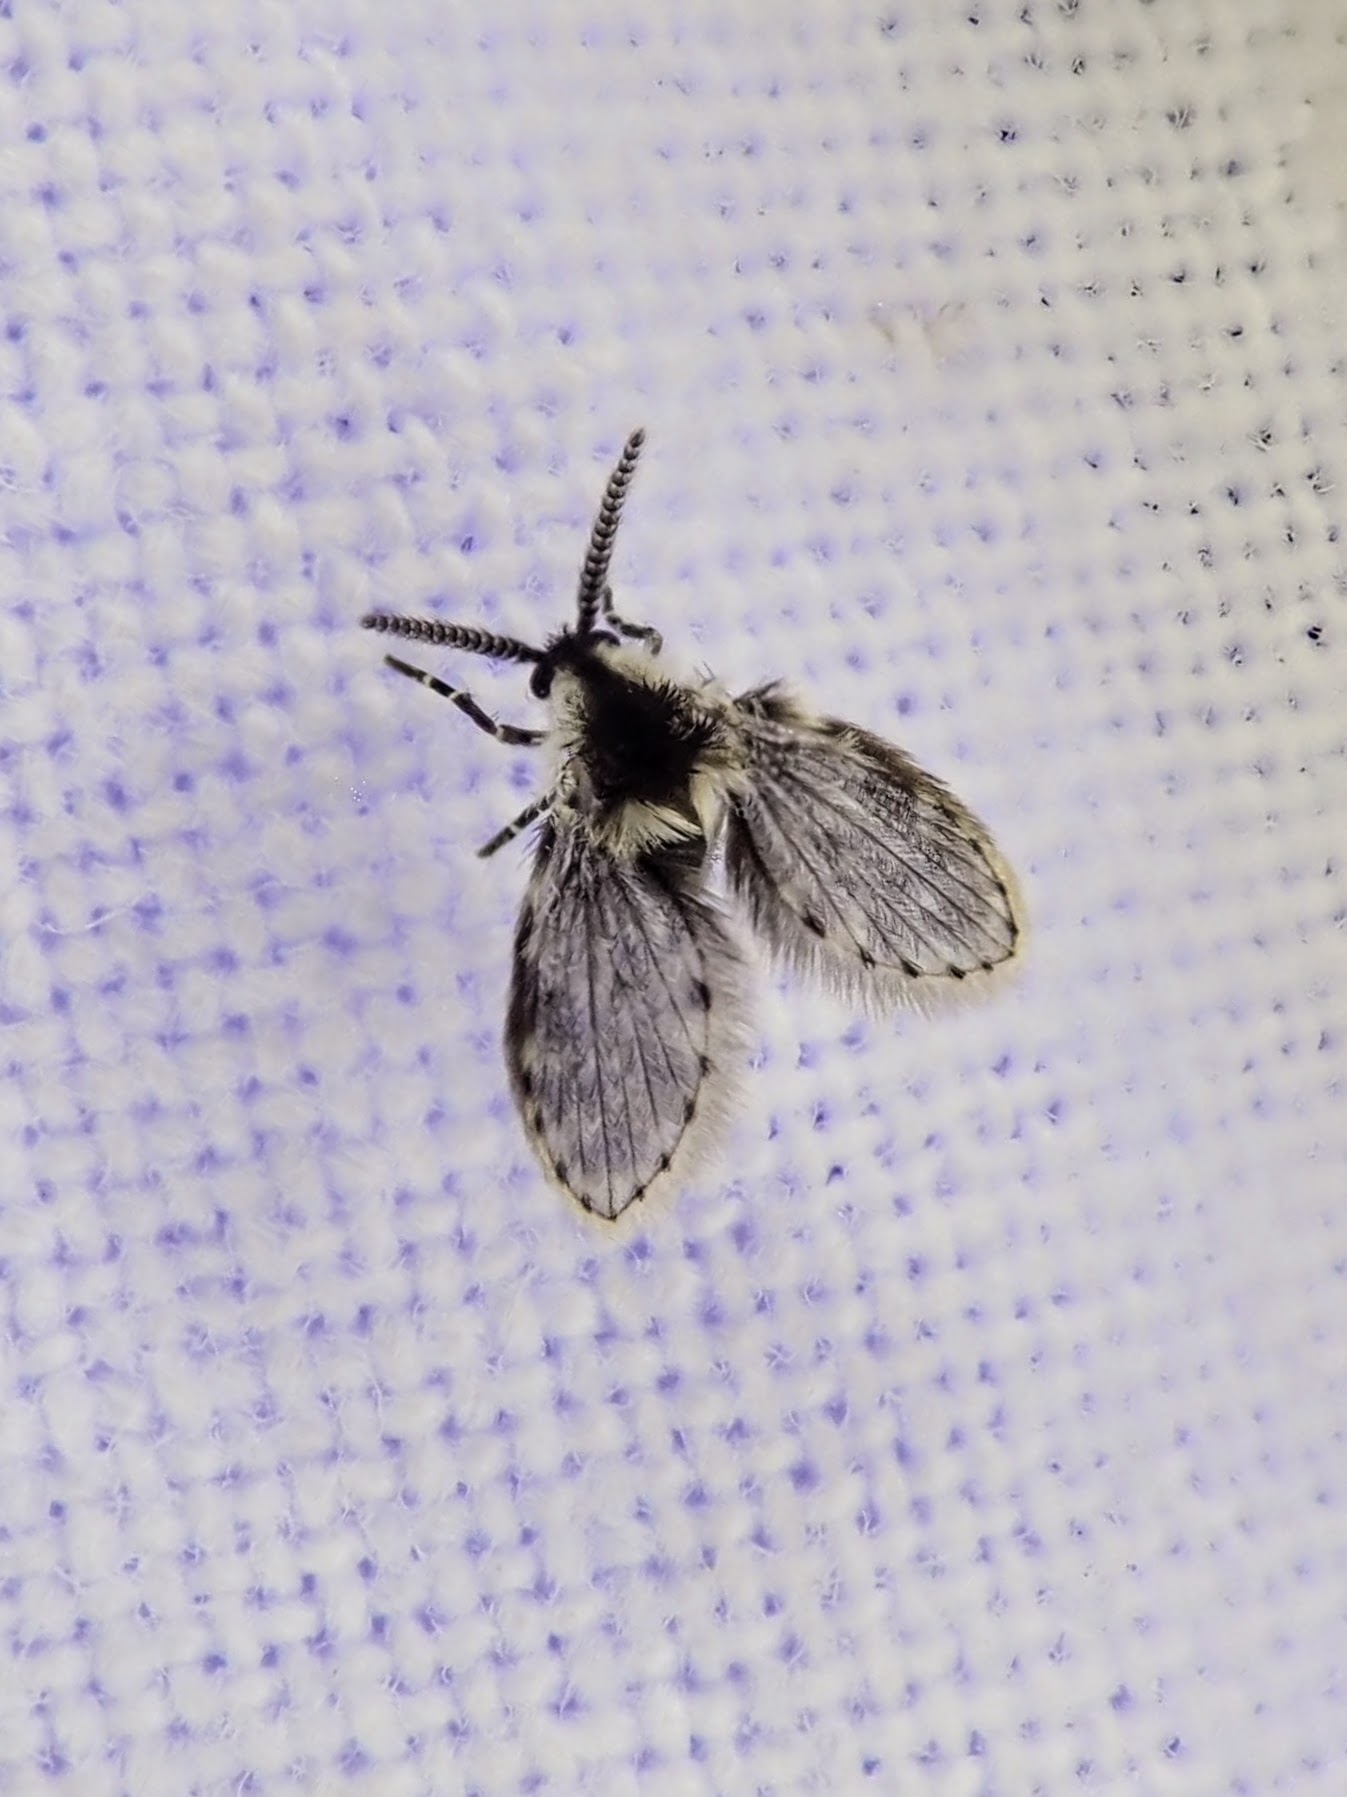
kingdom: Animalia
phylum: Arthropoda
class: Insecta
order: Diptera
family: Psychodidae
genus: Lepiseodina
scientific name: Lepiseodina
